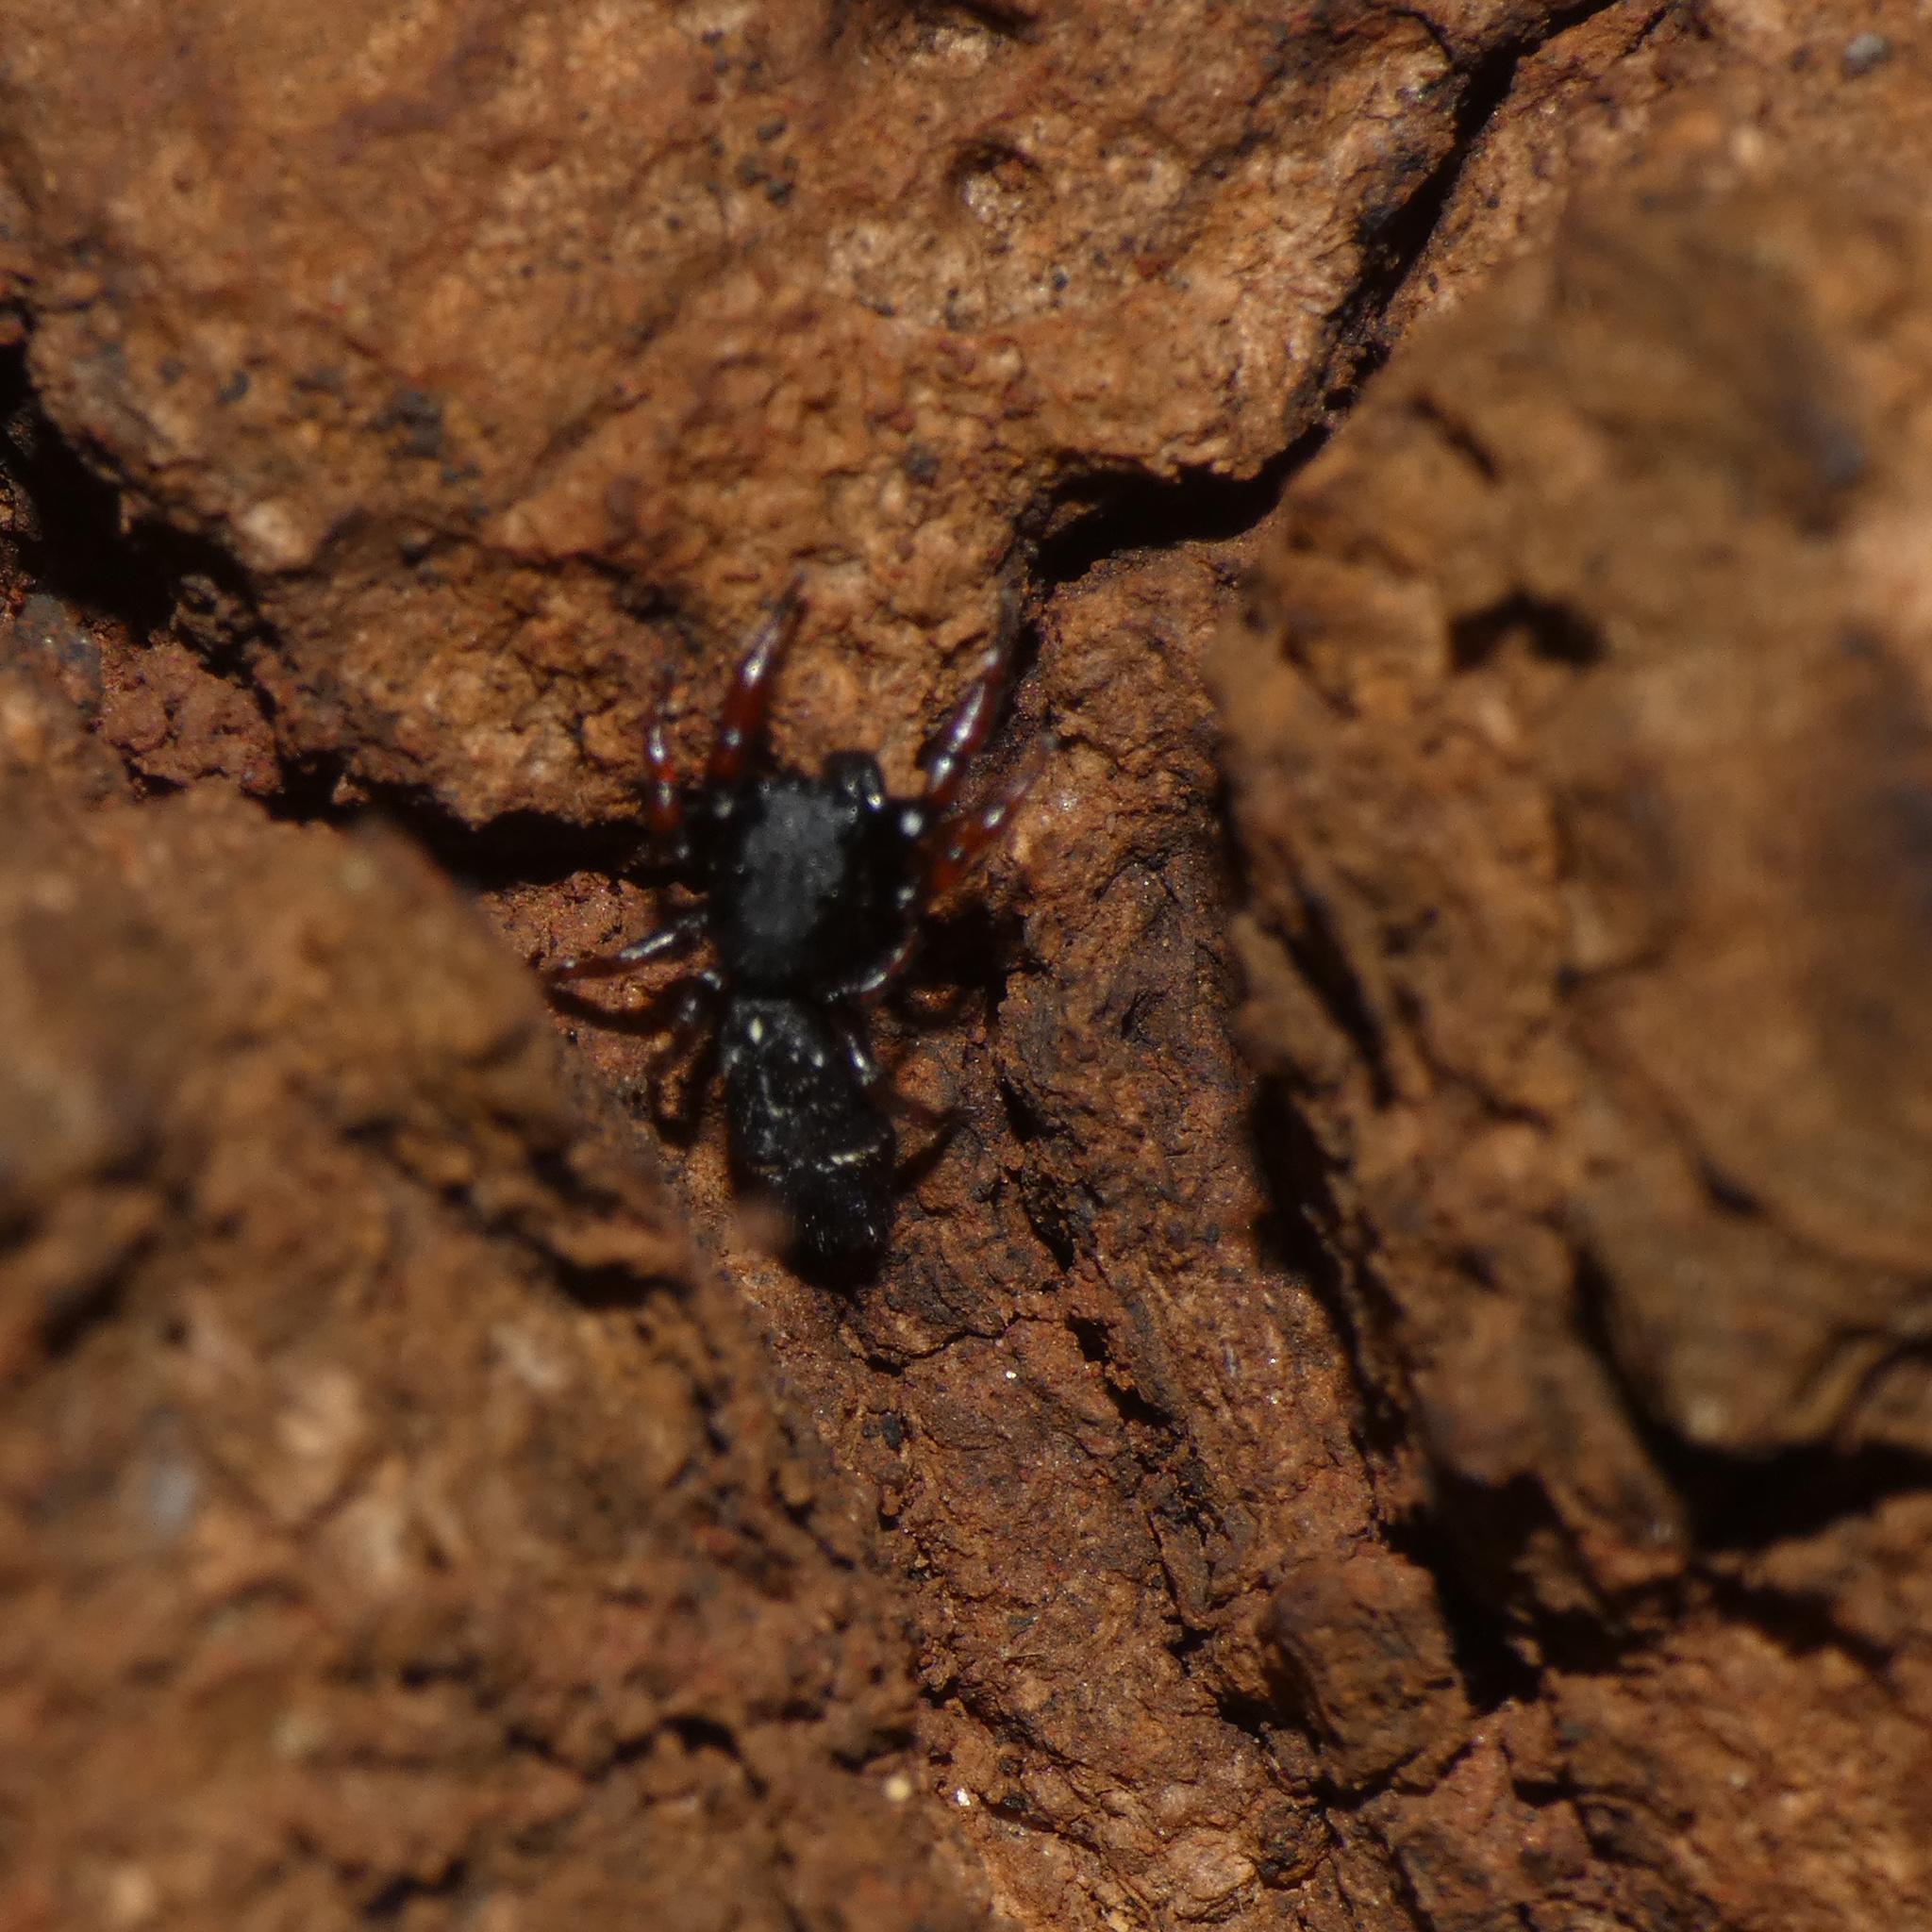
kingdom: Animalia
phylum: Arthropoda
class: Arachnida
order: Araneae
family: Salticidae
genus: Hispo
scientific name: Hispo georgius
